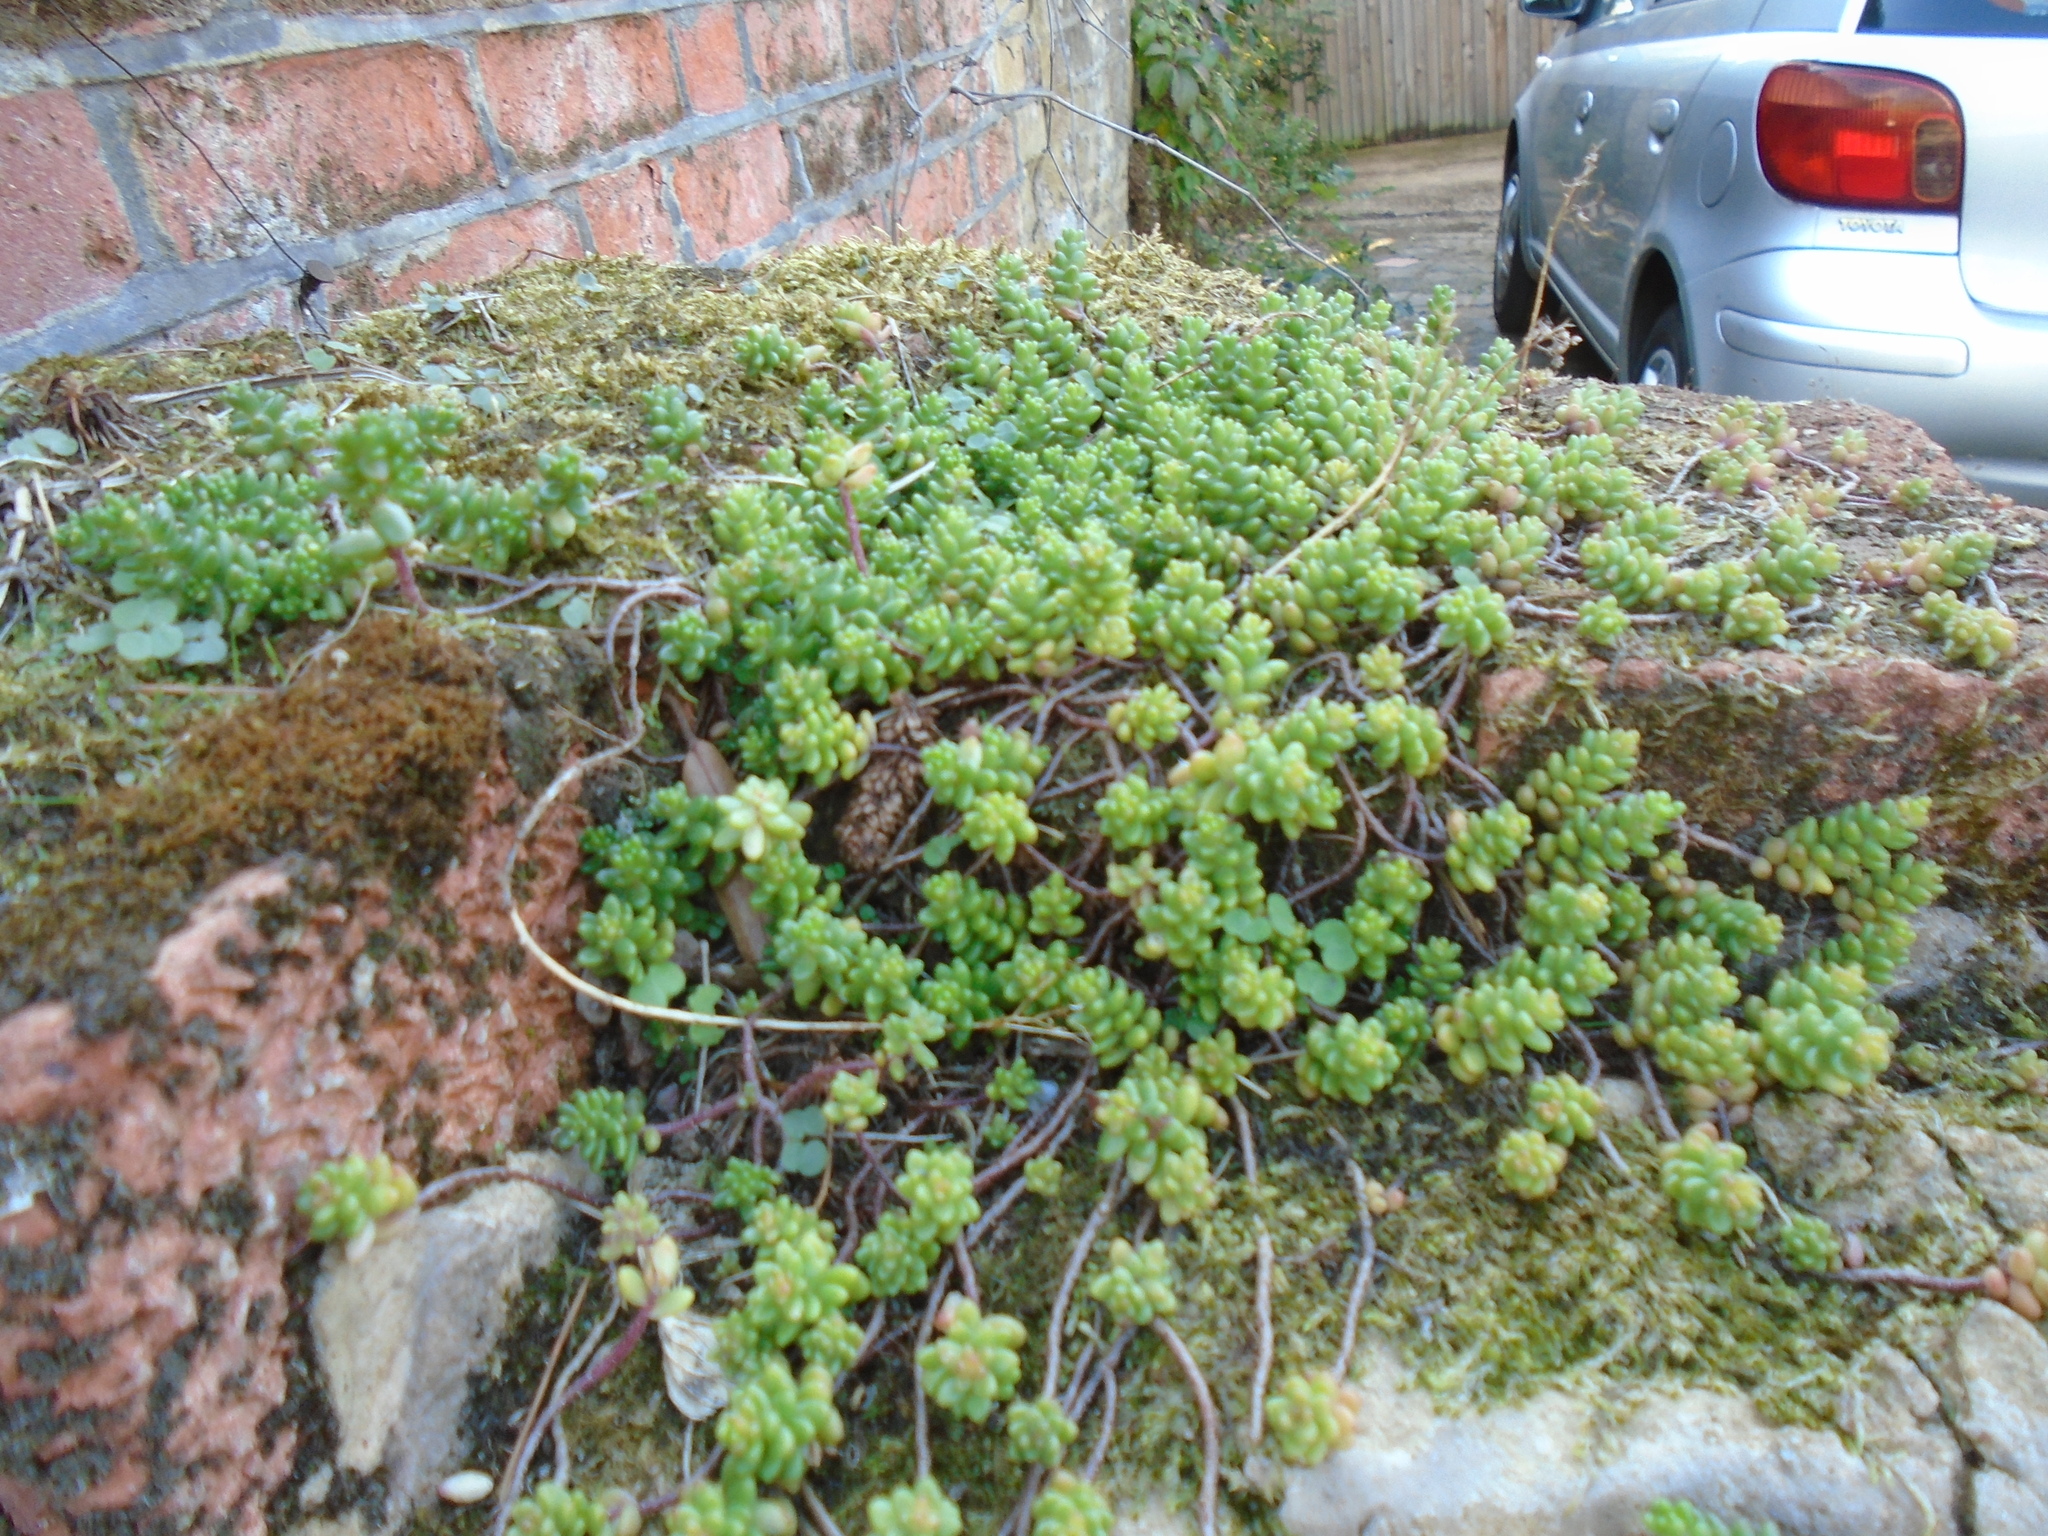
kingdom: Plantae
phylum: Tracheophyta
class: Magnoliopsida
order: Saxifragales
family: Crassulaceae
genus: Sedum
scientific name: Sedum album
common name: White stonecrop
